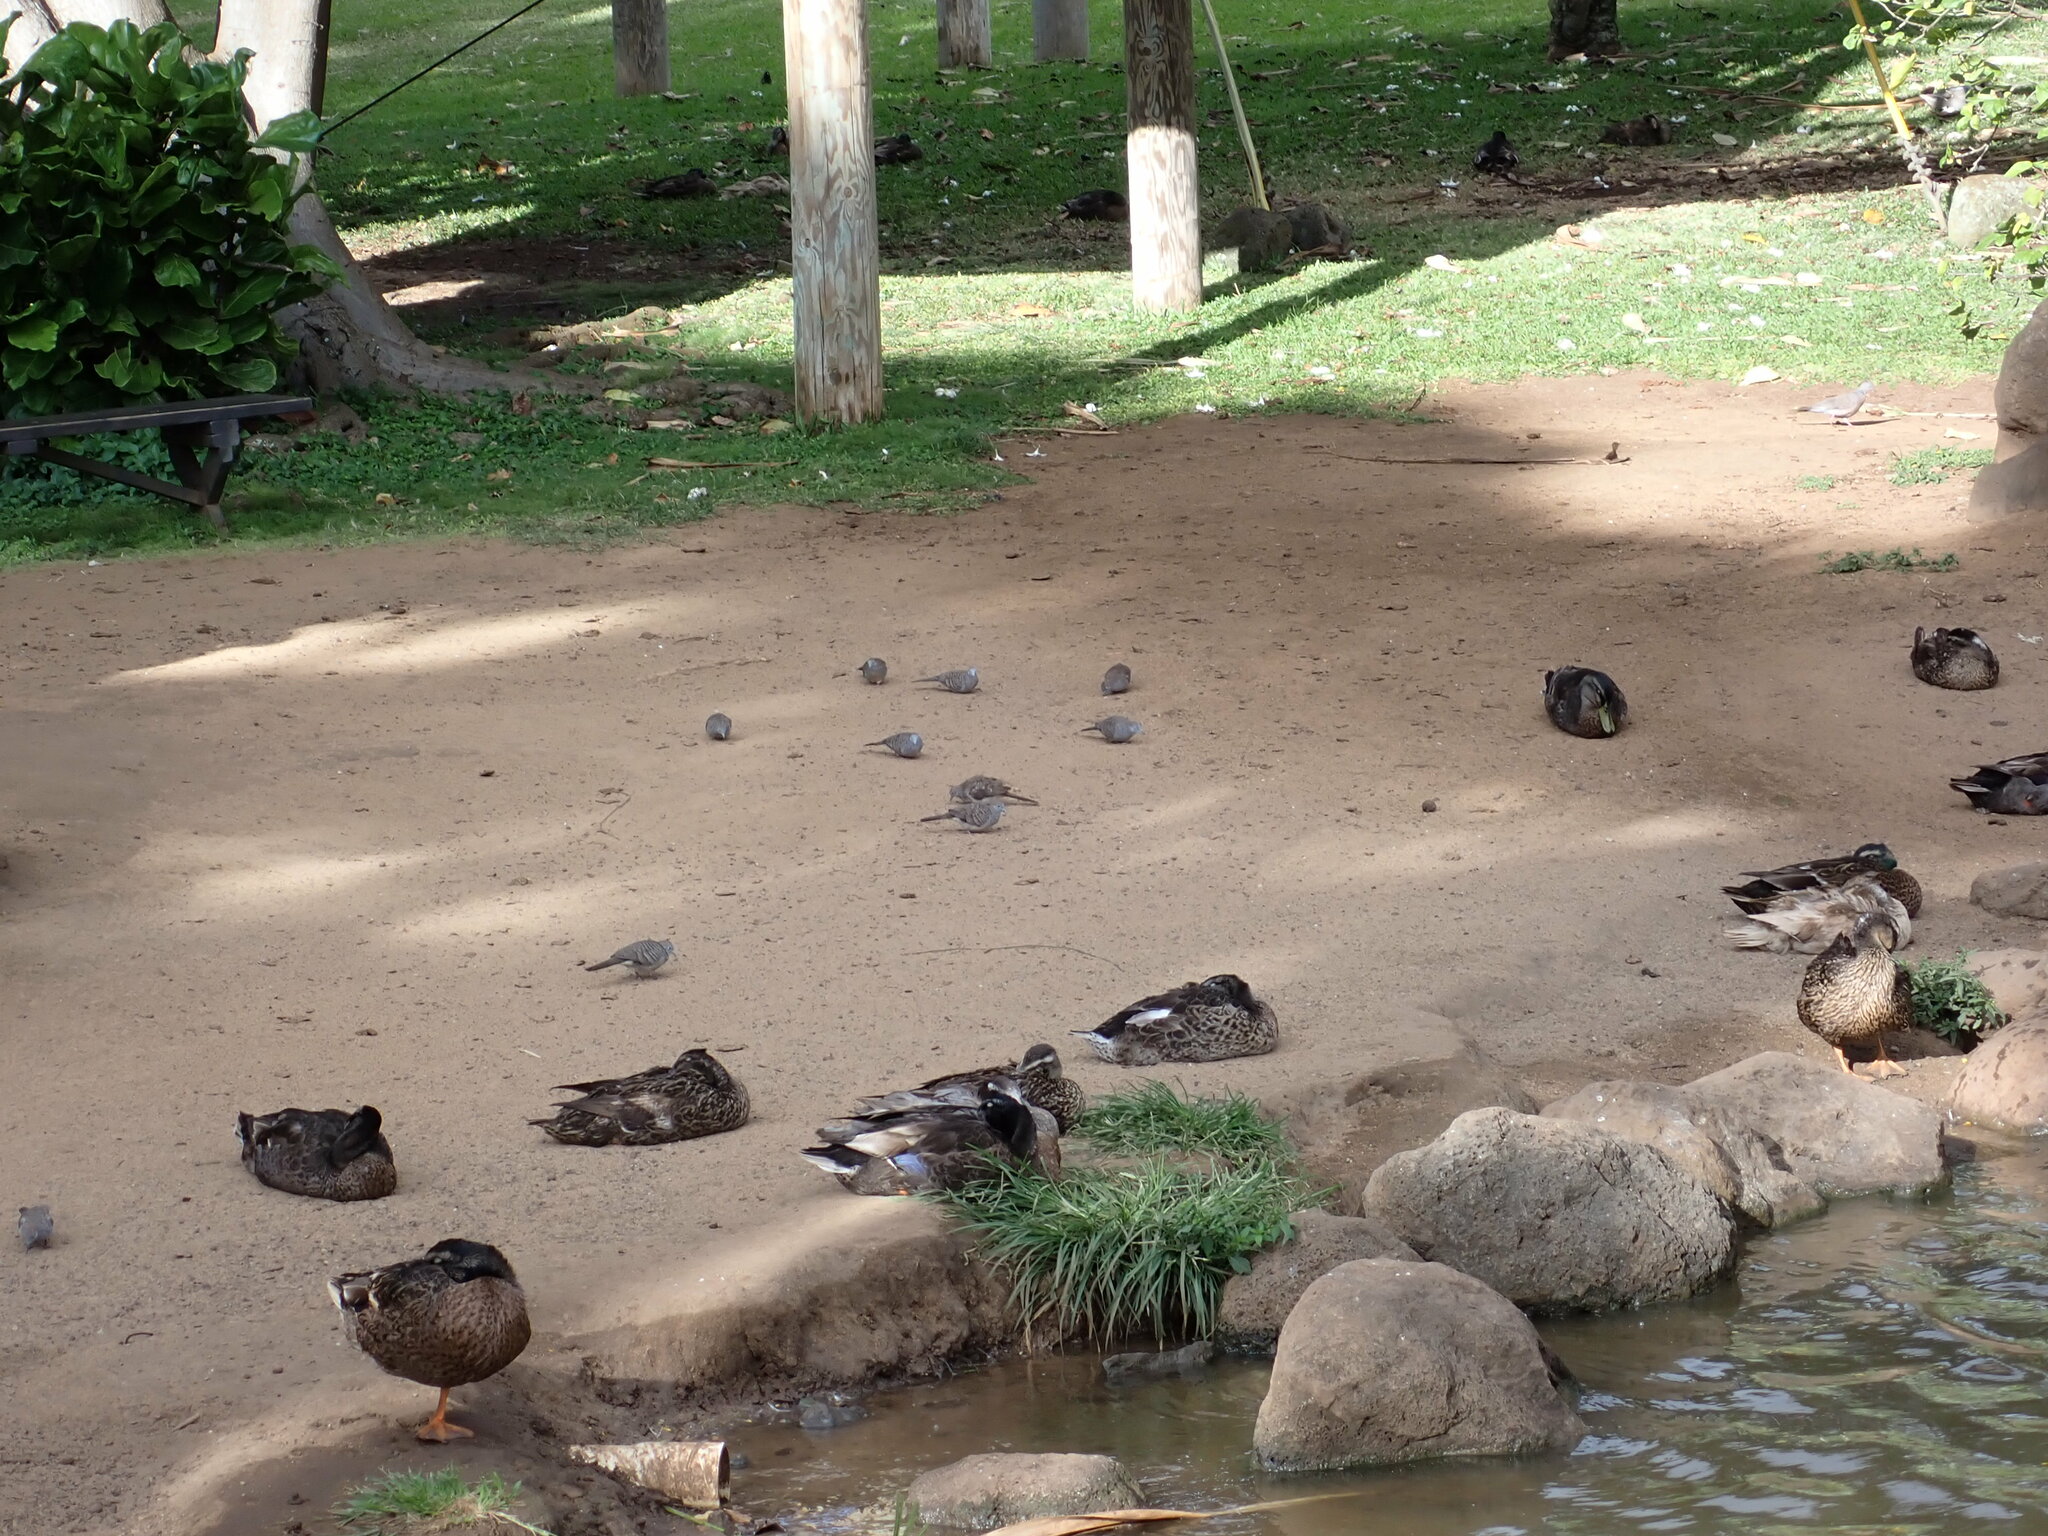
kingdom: Animalia
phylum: Chordata
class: Aves
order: Columbiformes
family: Columbidae
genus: Geopelia
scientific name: Geopelia striata
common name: Zebra dove
